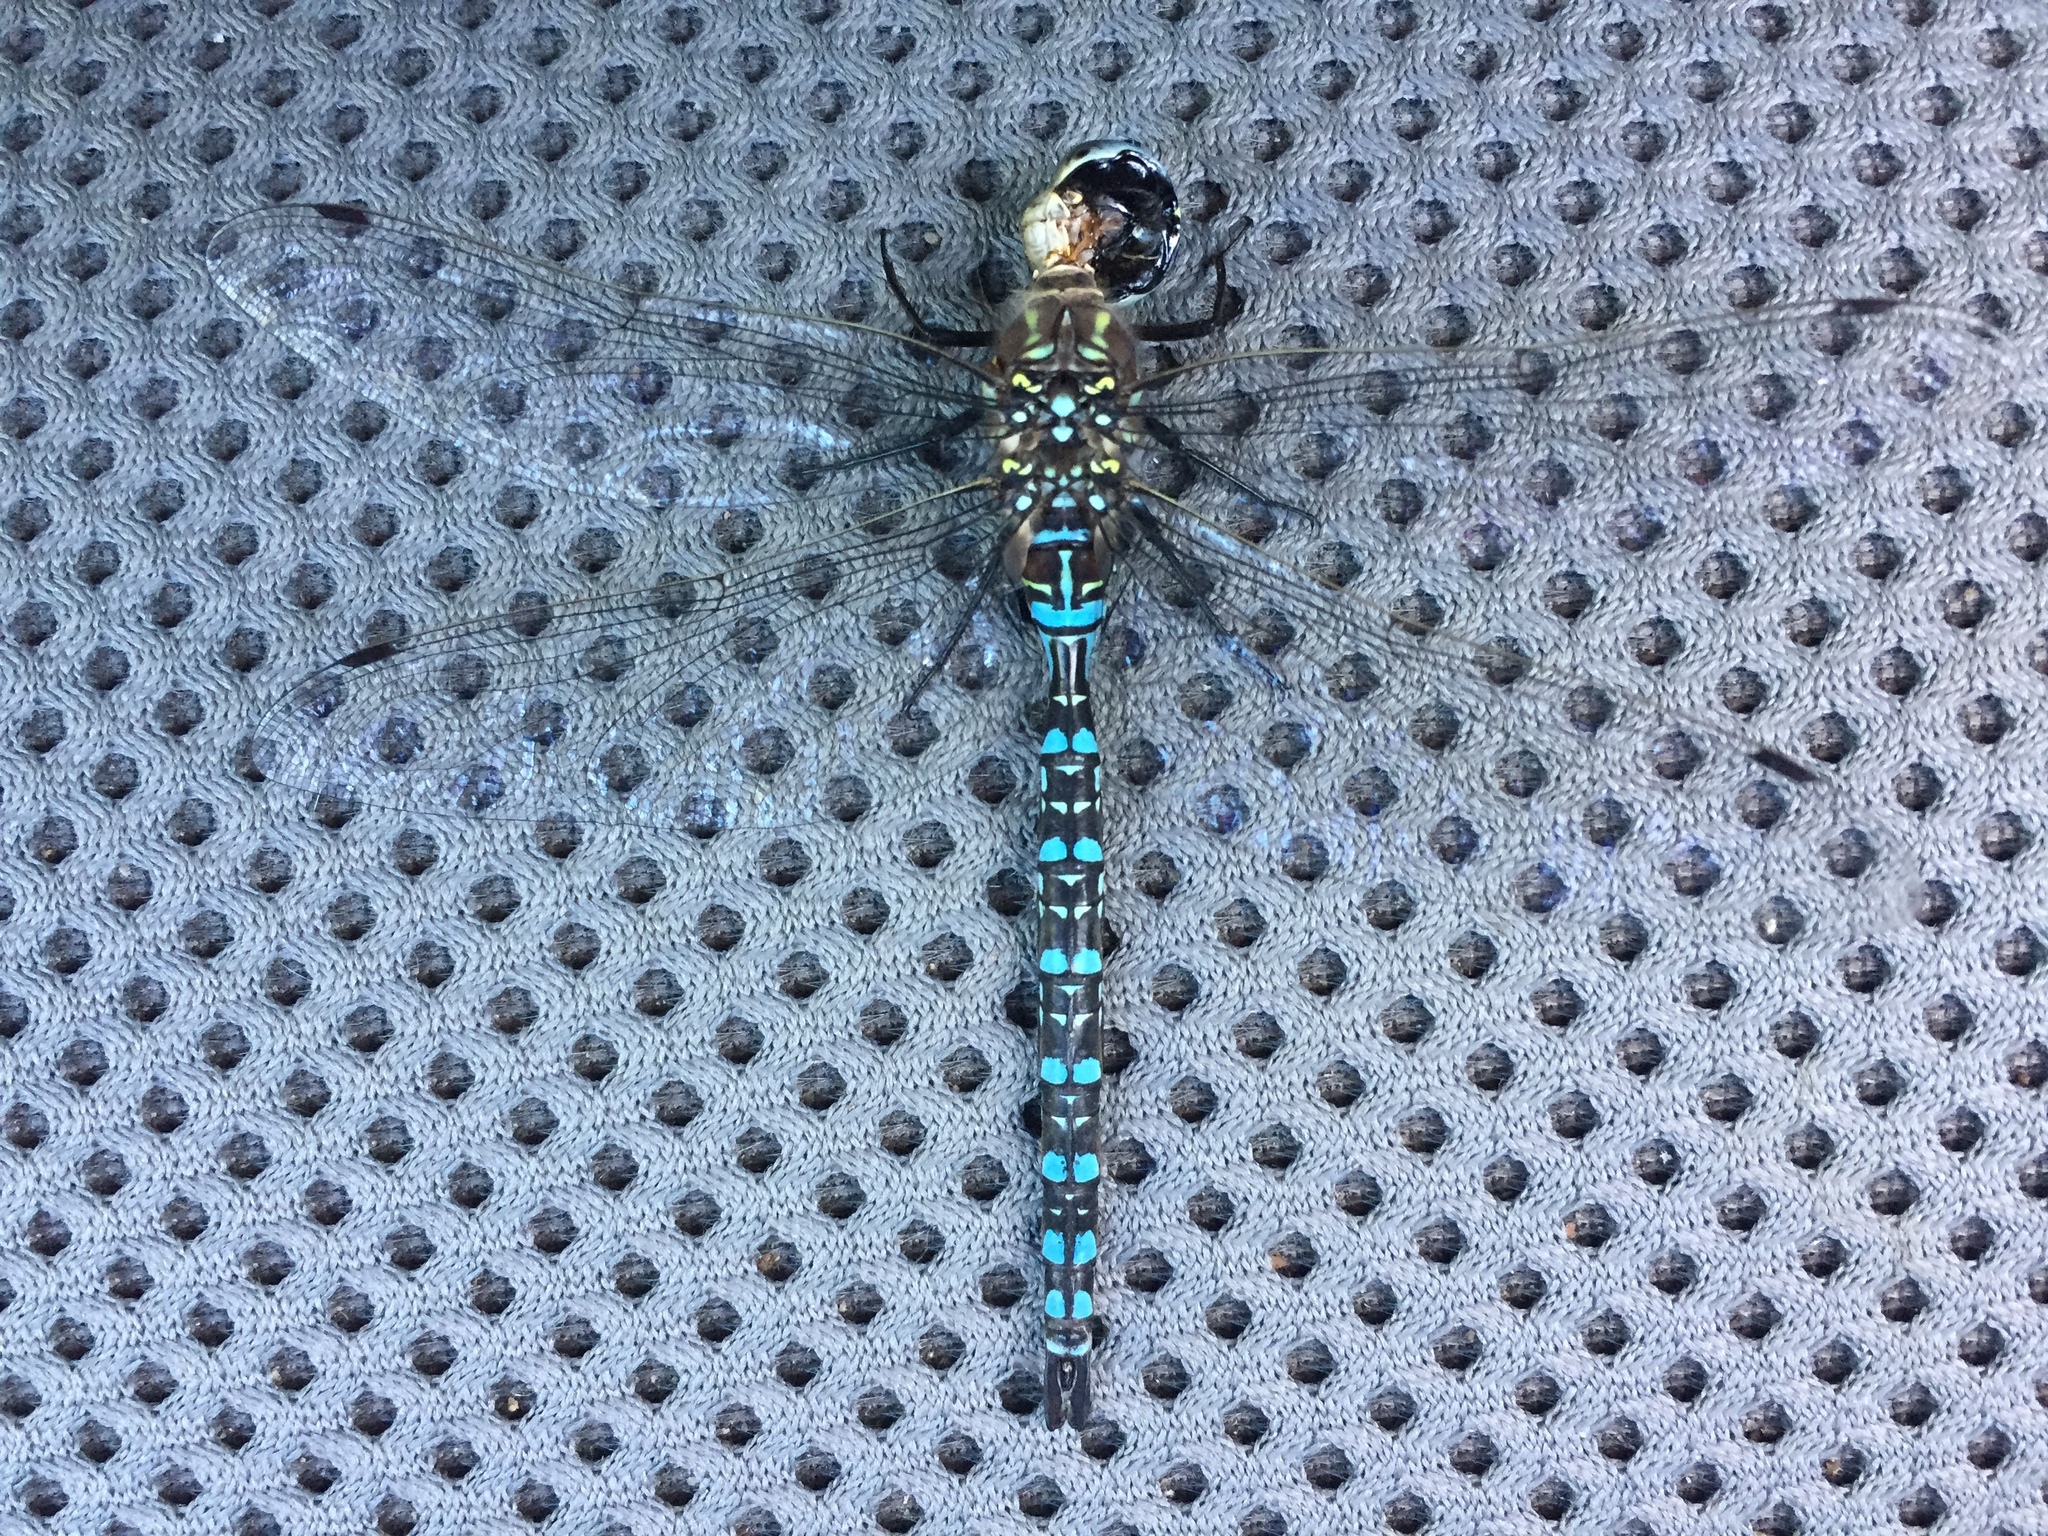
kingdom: Animalia
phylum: Arthropoda
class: Insecta
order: Odonata
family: Aeshnidae
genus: Aeshna
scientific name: Aeshna palmata
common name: Paddle-tailed darner
